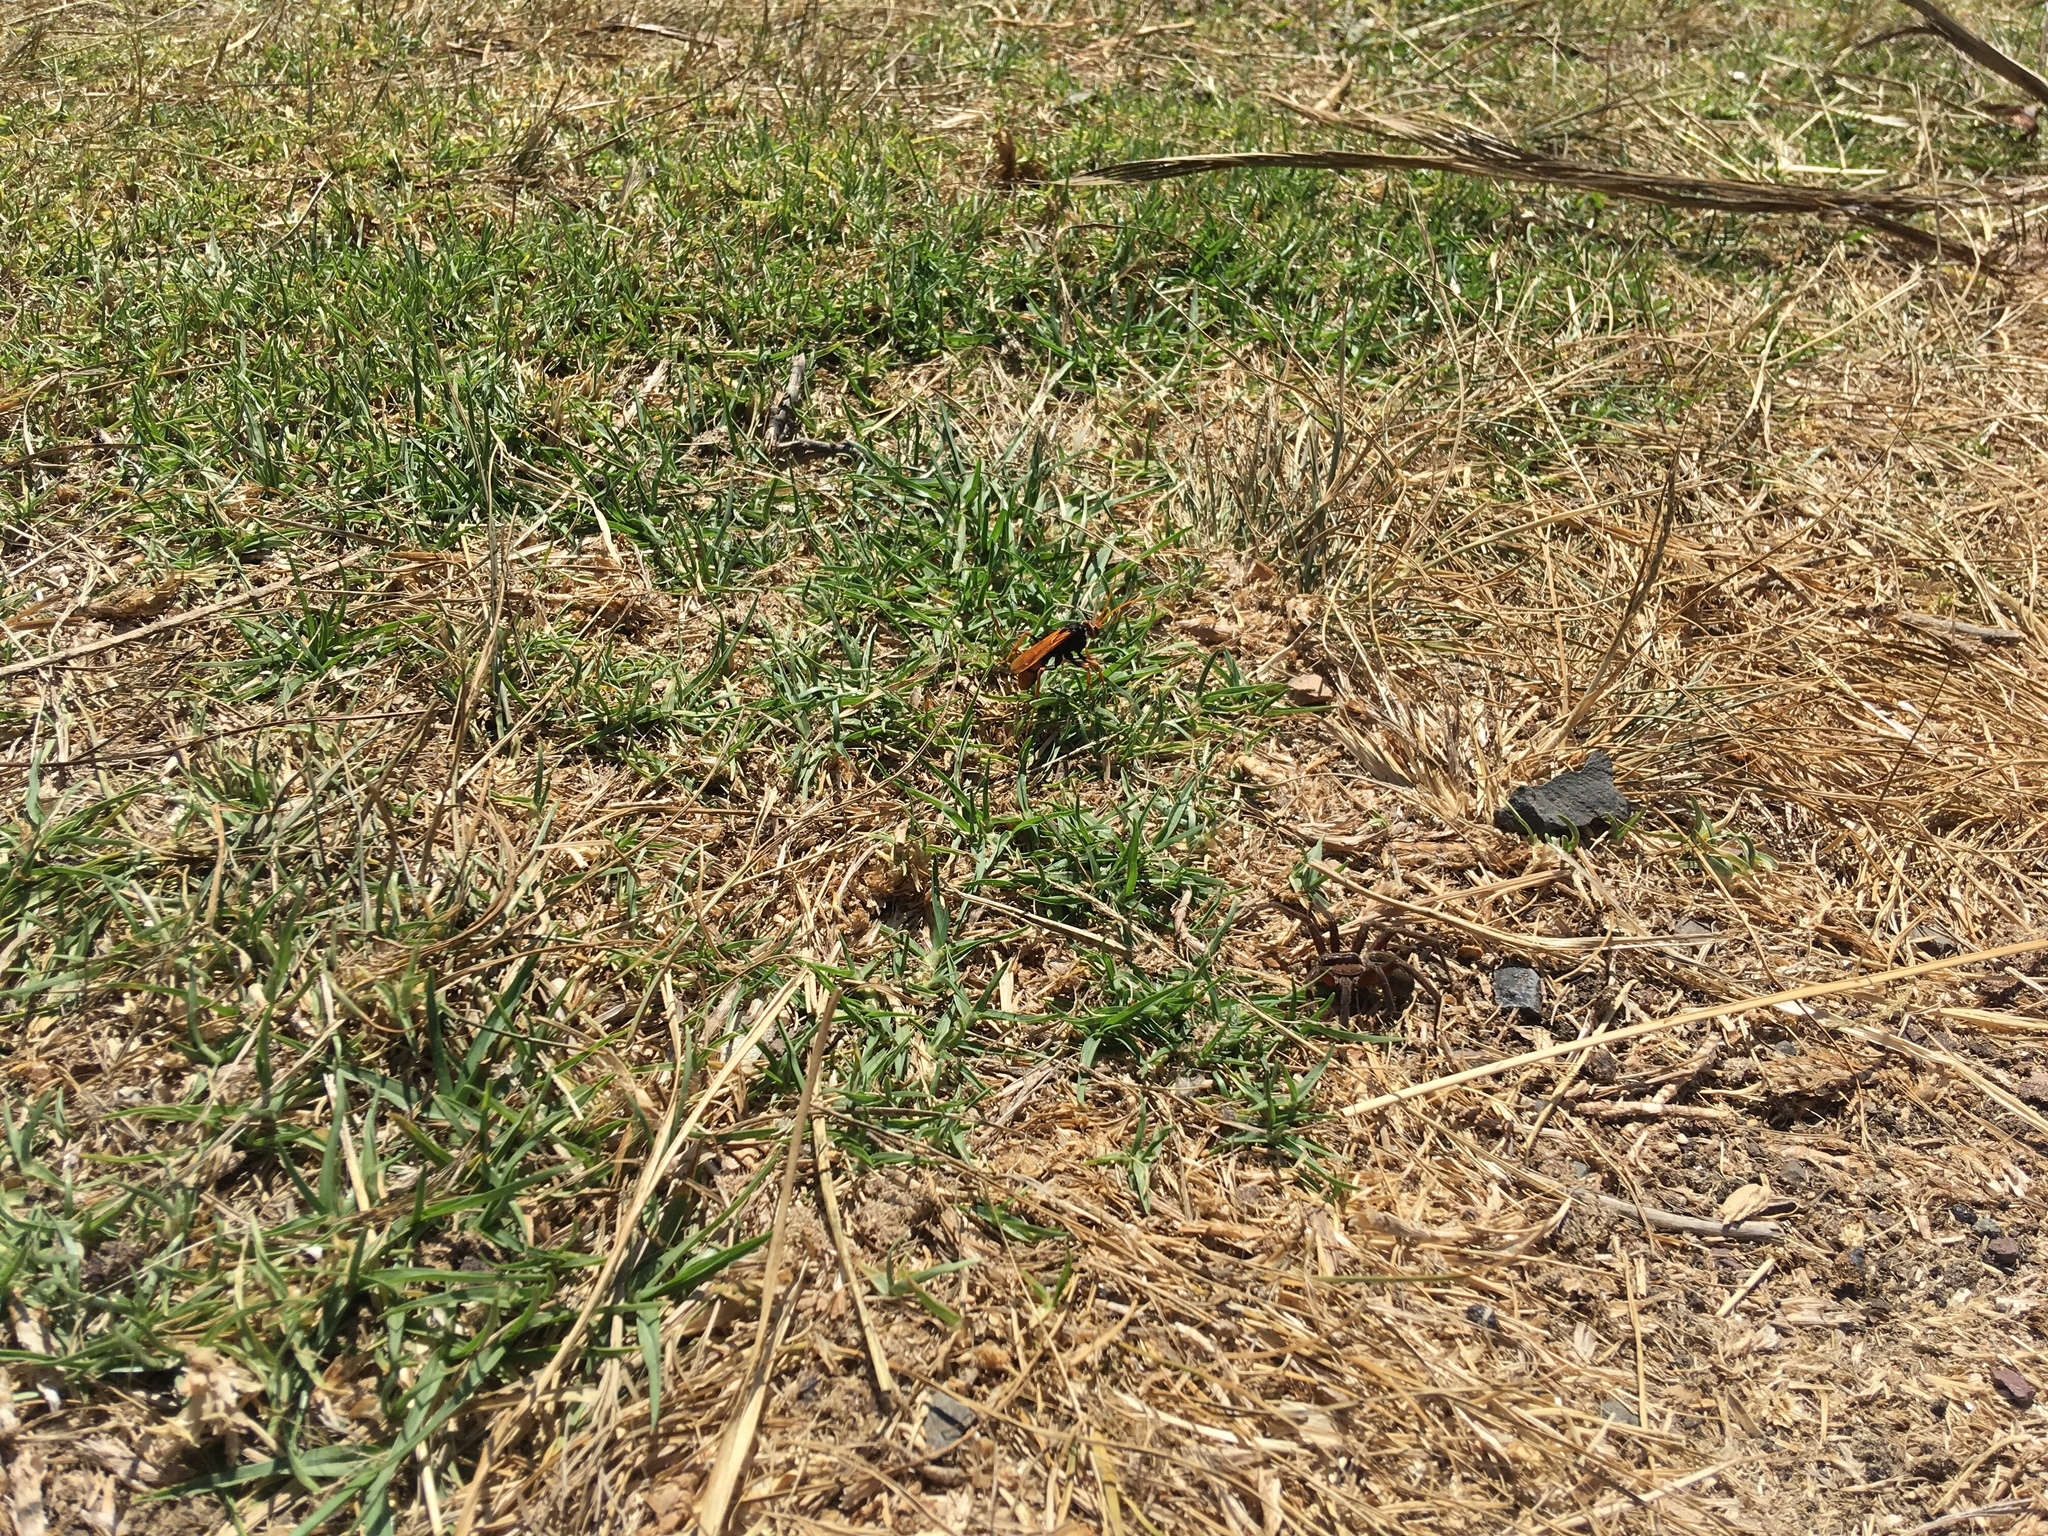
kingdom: Animalia
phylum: Arthropoda
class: Insecta
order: Hymenoptera
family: Pompilidae
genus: Cryptocheilus
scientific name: Cryptocheilus australis
